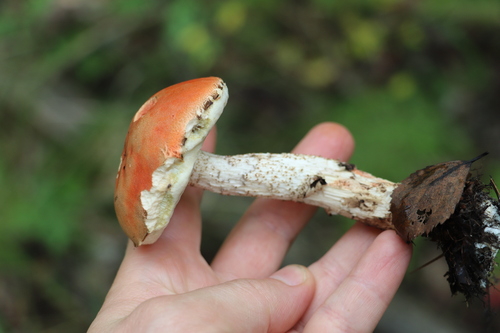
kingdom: Fungi
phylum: Basidiomycota
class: Agaricomycetes
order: Boletales
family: Boletaceae
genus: Leccinum
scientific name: Leccinum
